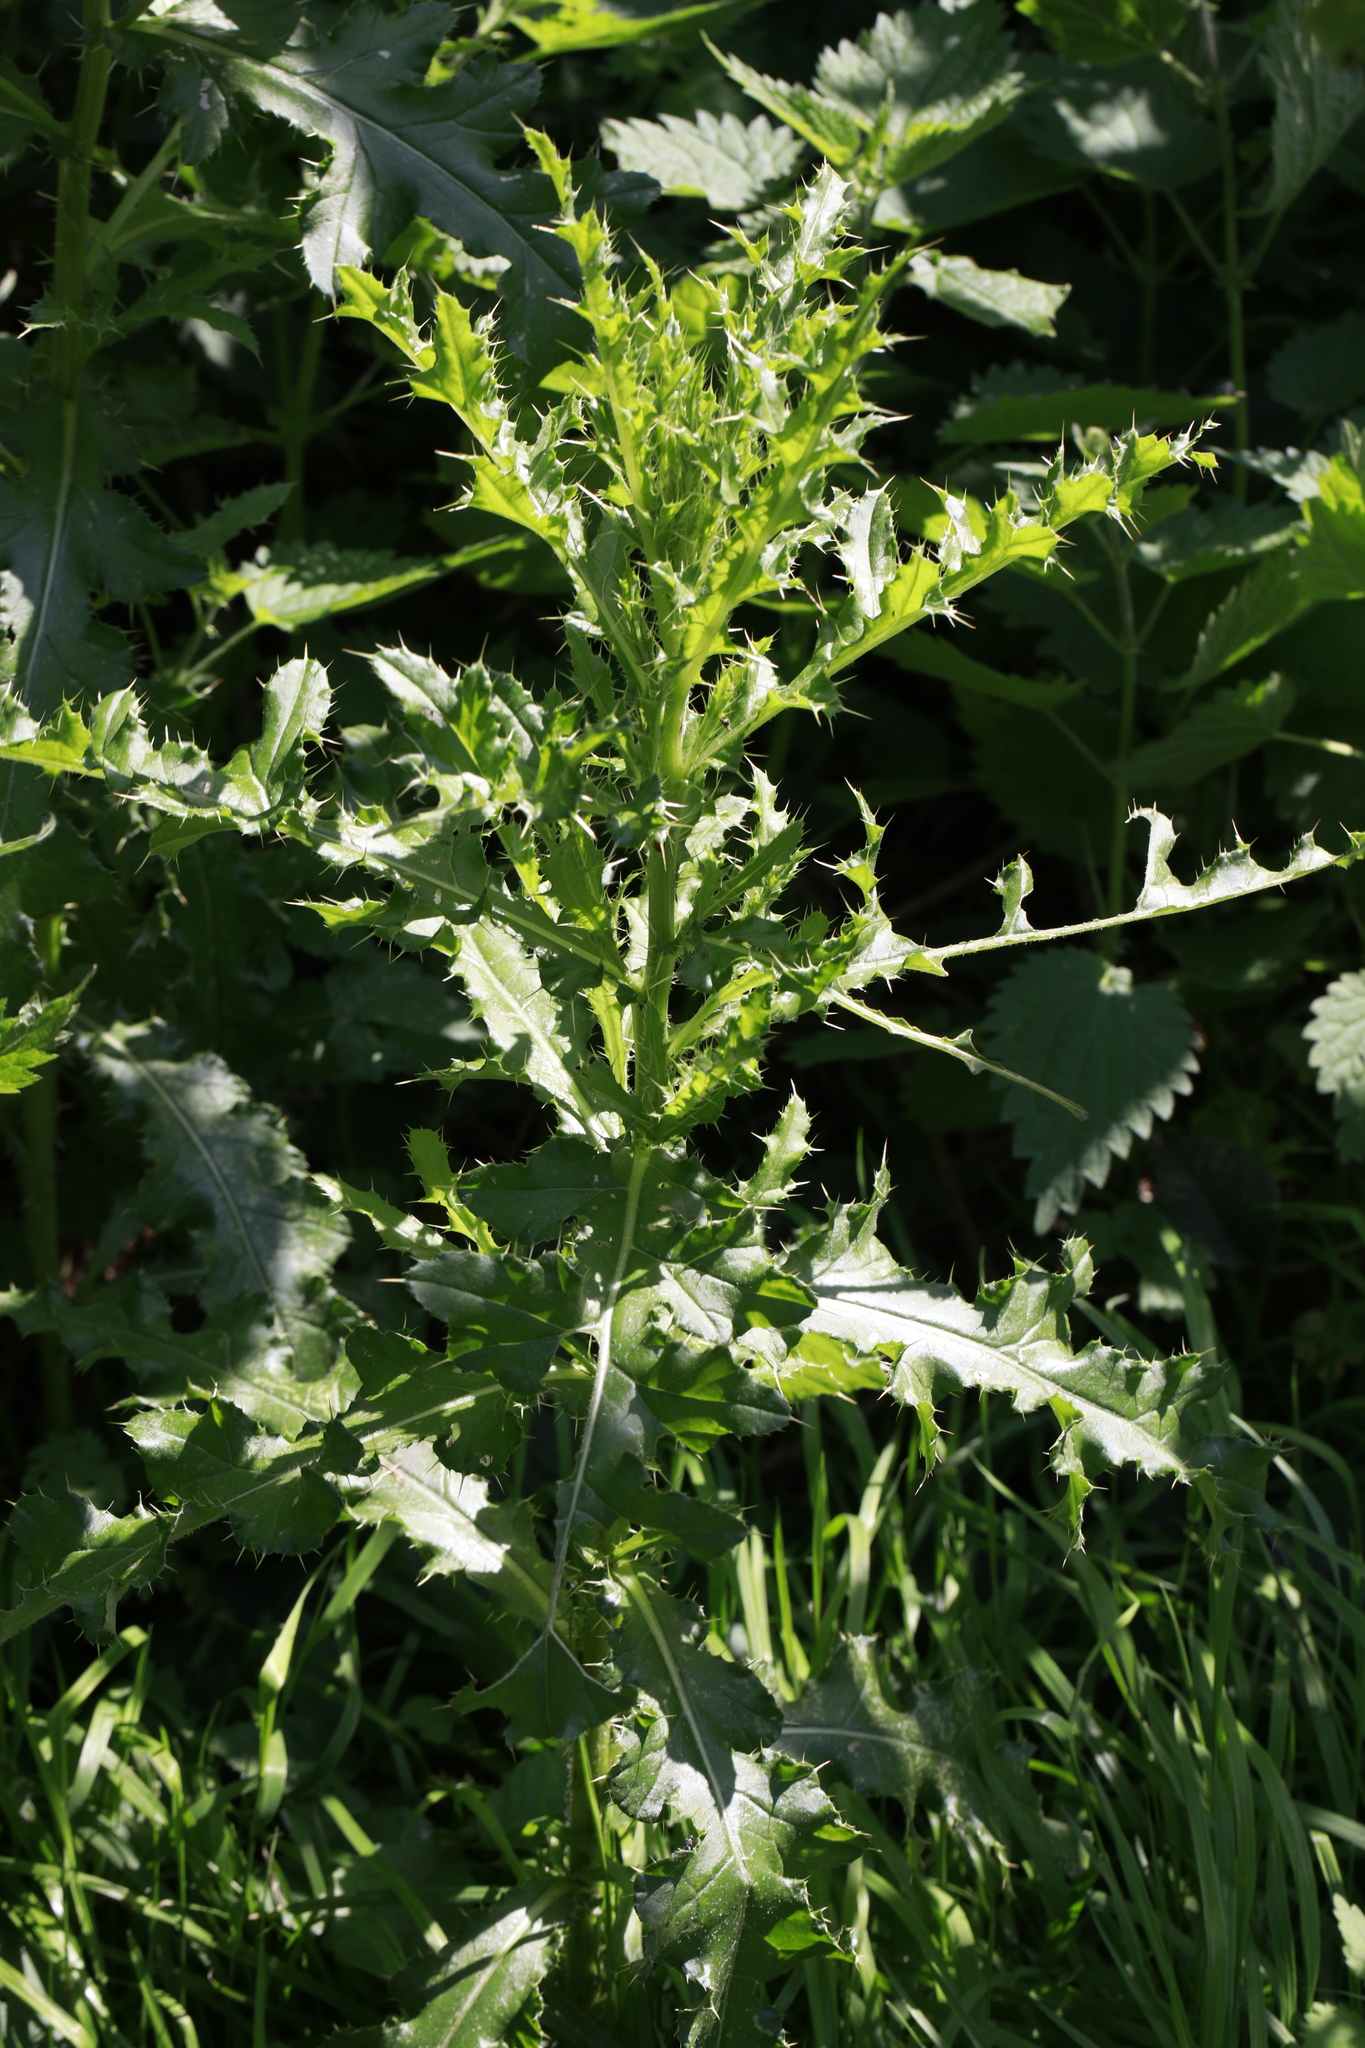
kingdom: Plantae
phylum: Tracheophyta
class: Magnoliopsida
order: Asterales
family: Asteraceae
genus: Cirsium
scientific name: Cirsium arvense
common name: Creeping thistle
